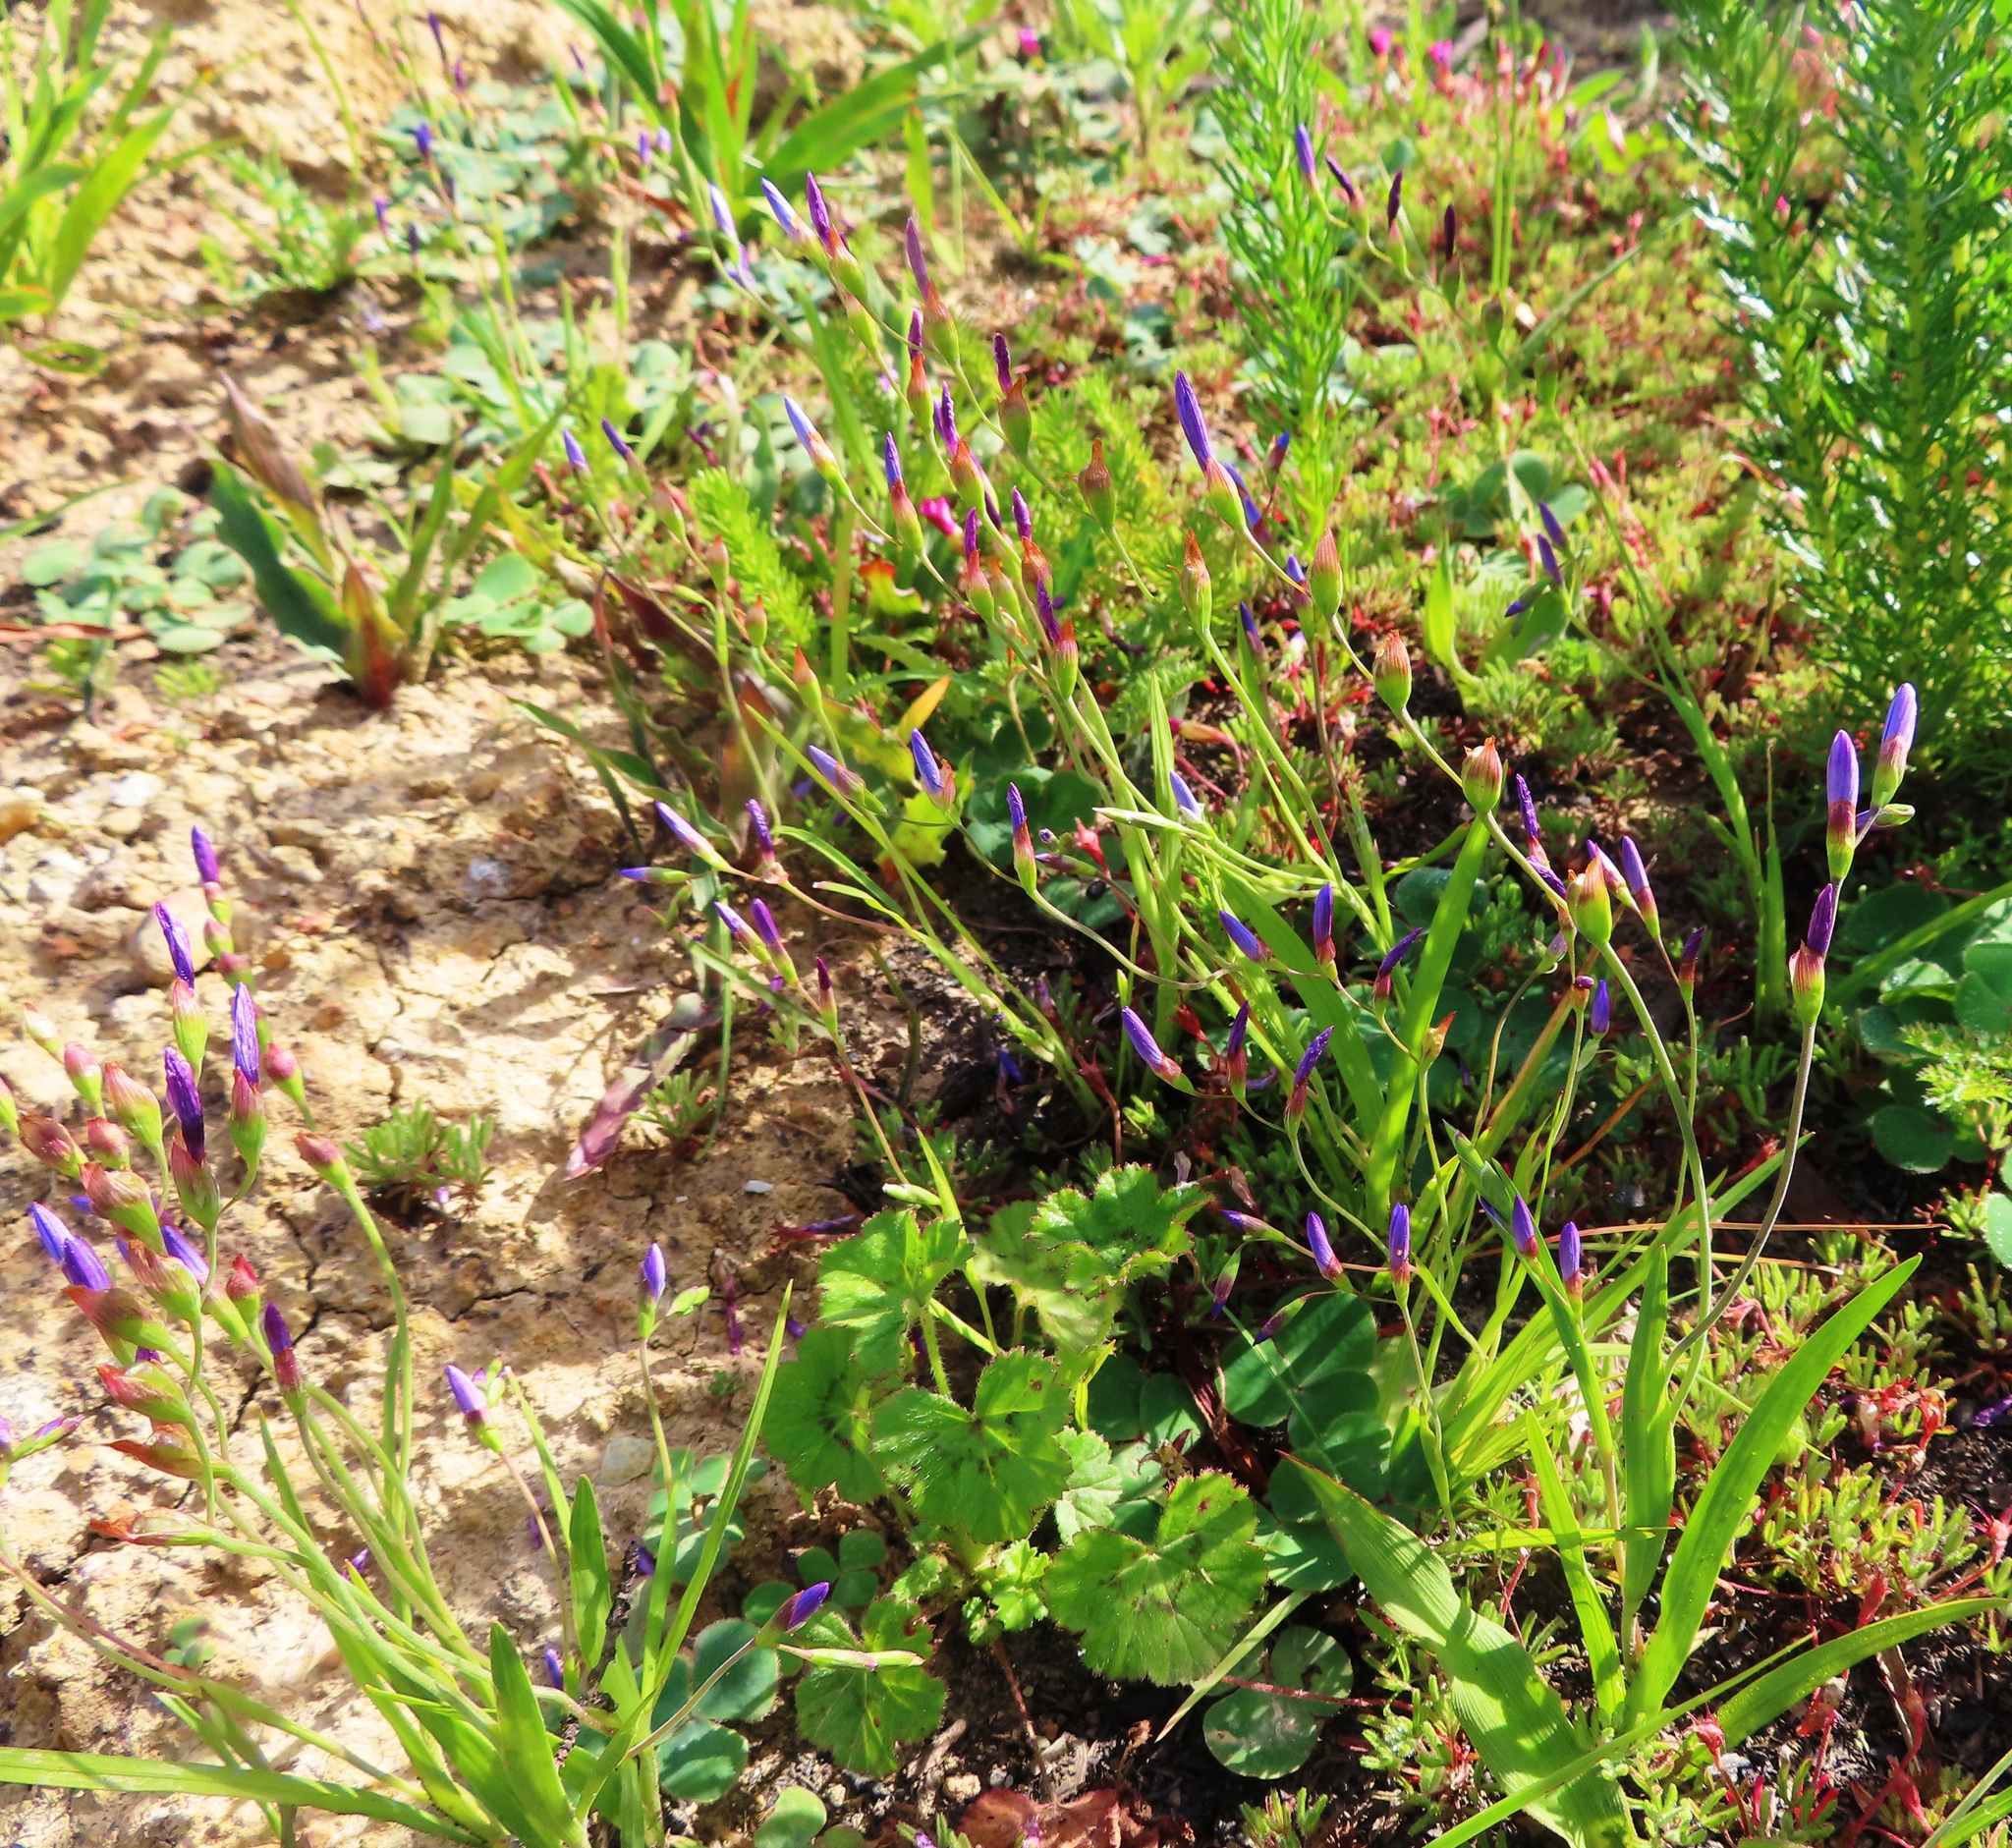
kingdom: Plantae
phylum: Tracheophyta
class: Liliopsida
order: Asparagales
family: Iridaceae
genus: Geissorhiza
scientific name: Geissorhiza aspera
